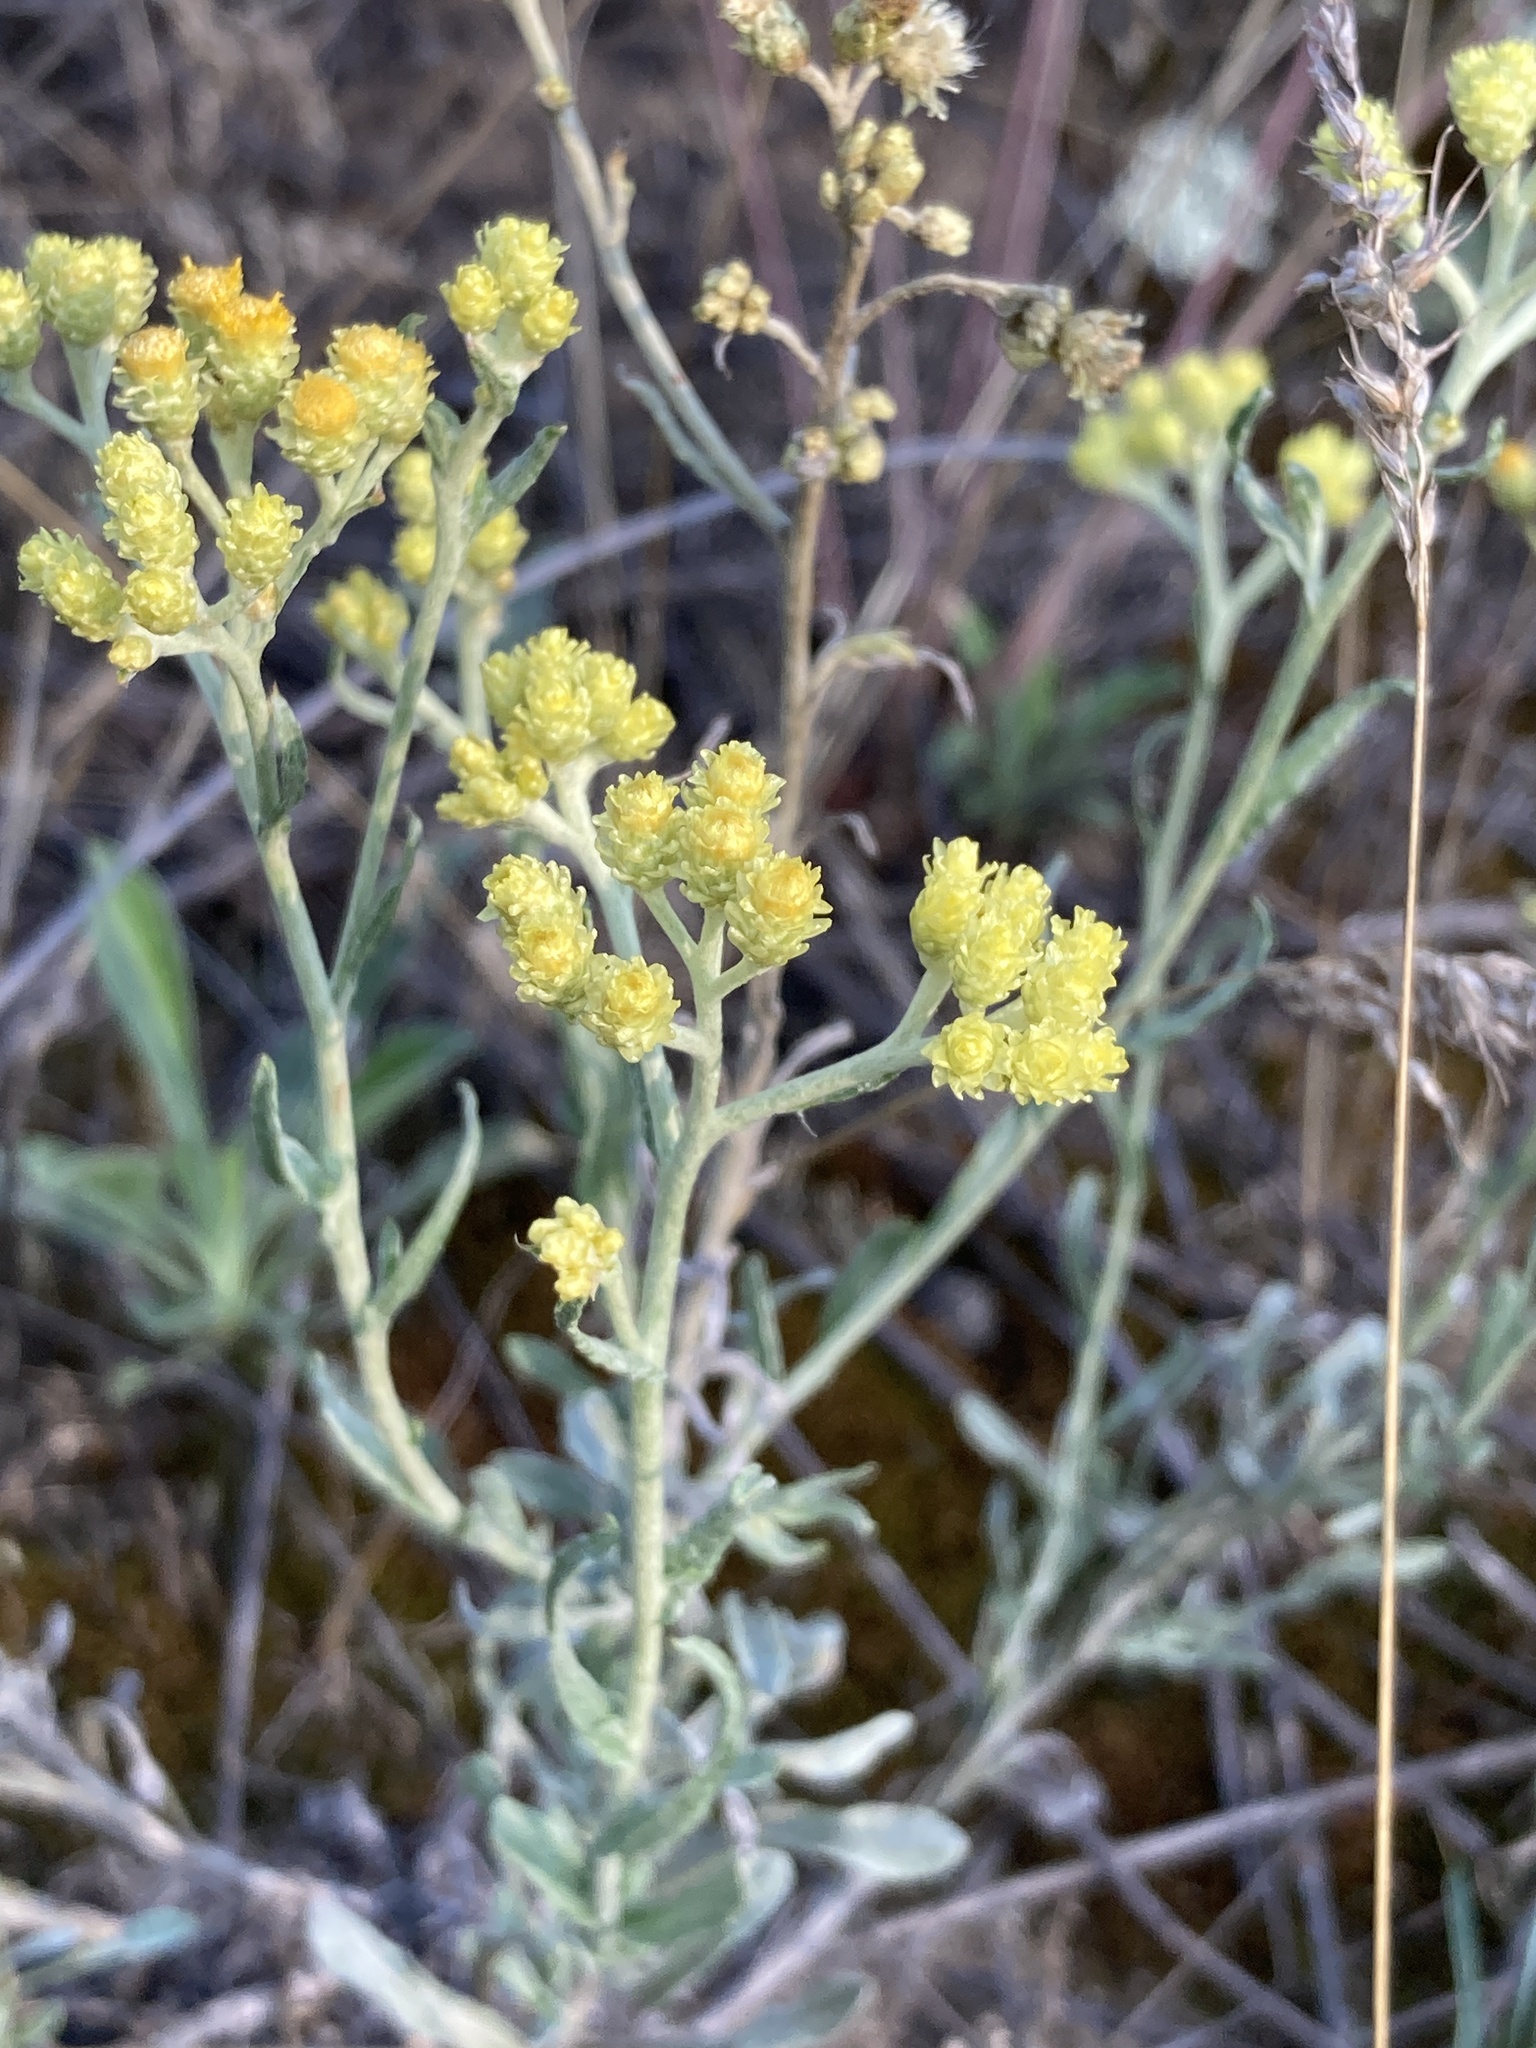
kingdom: Plantae
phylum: Tracheophyta
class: Magnoliopsida
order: Asterales
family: Asteraceae
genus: Helichrysum
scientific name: Helichrysum arenarium
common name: Strawflower
